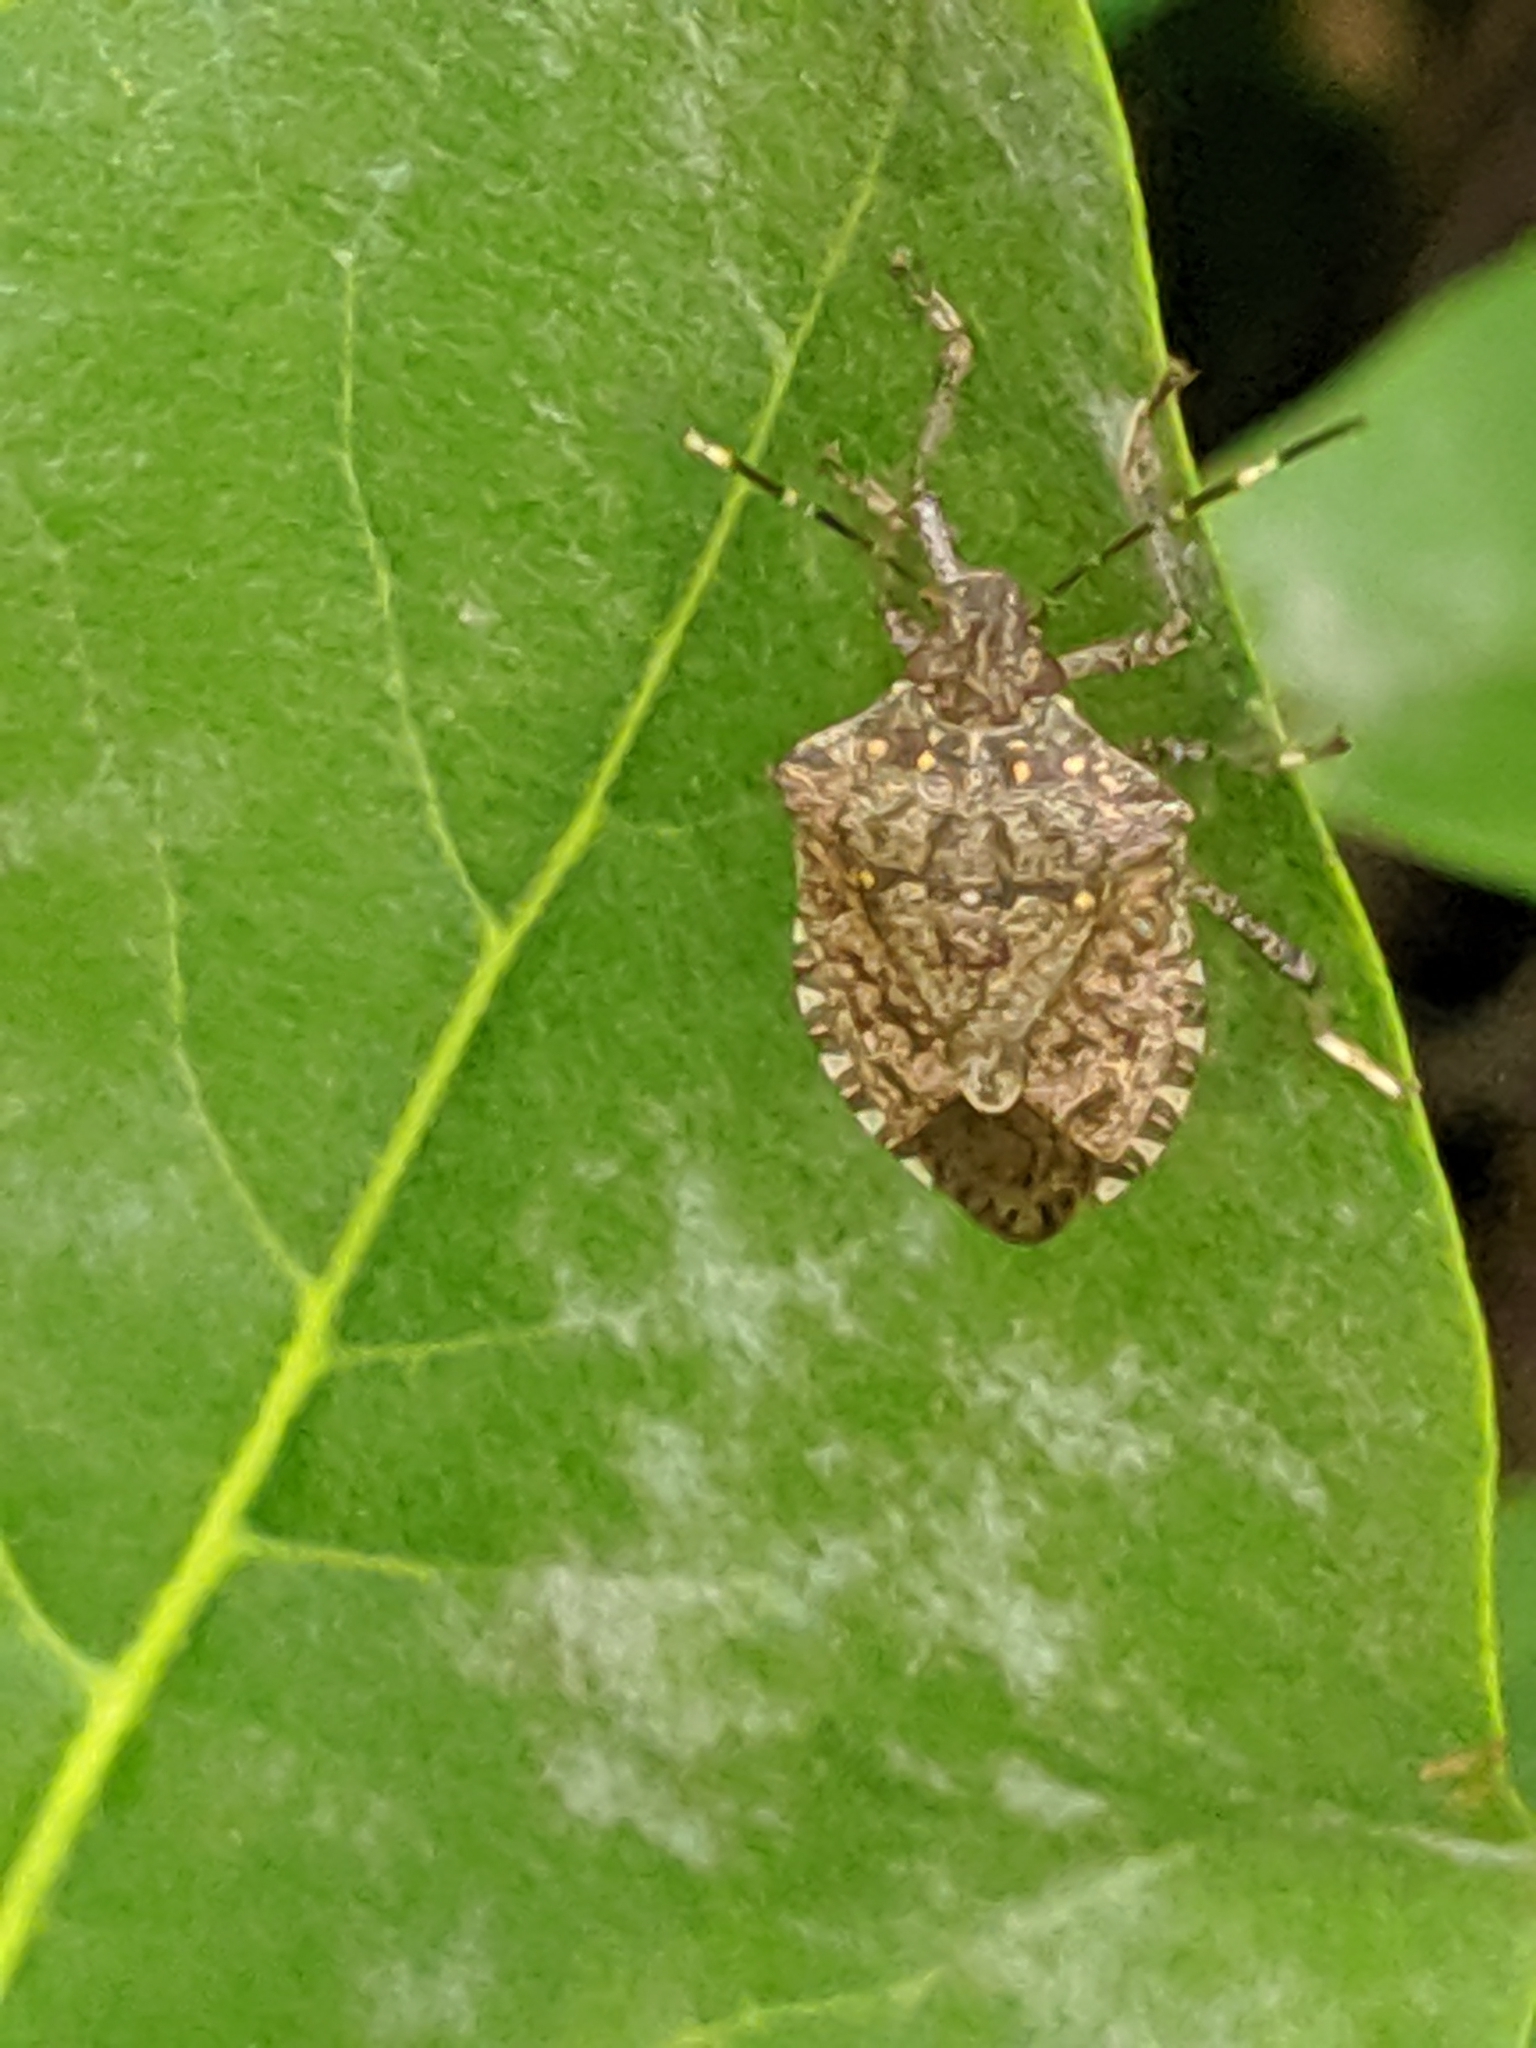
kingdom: Animalia
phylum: Arthropoda
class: Insecta
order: Hemiptera
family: Pentatomidae
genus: Halyomorpha
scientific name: Halyomorpha halys
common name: Brown marmorated stink bug
